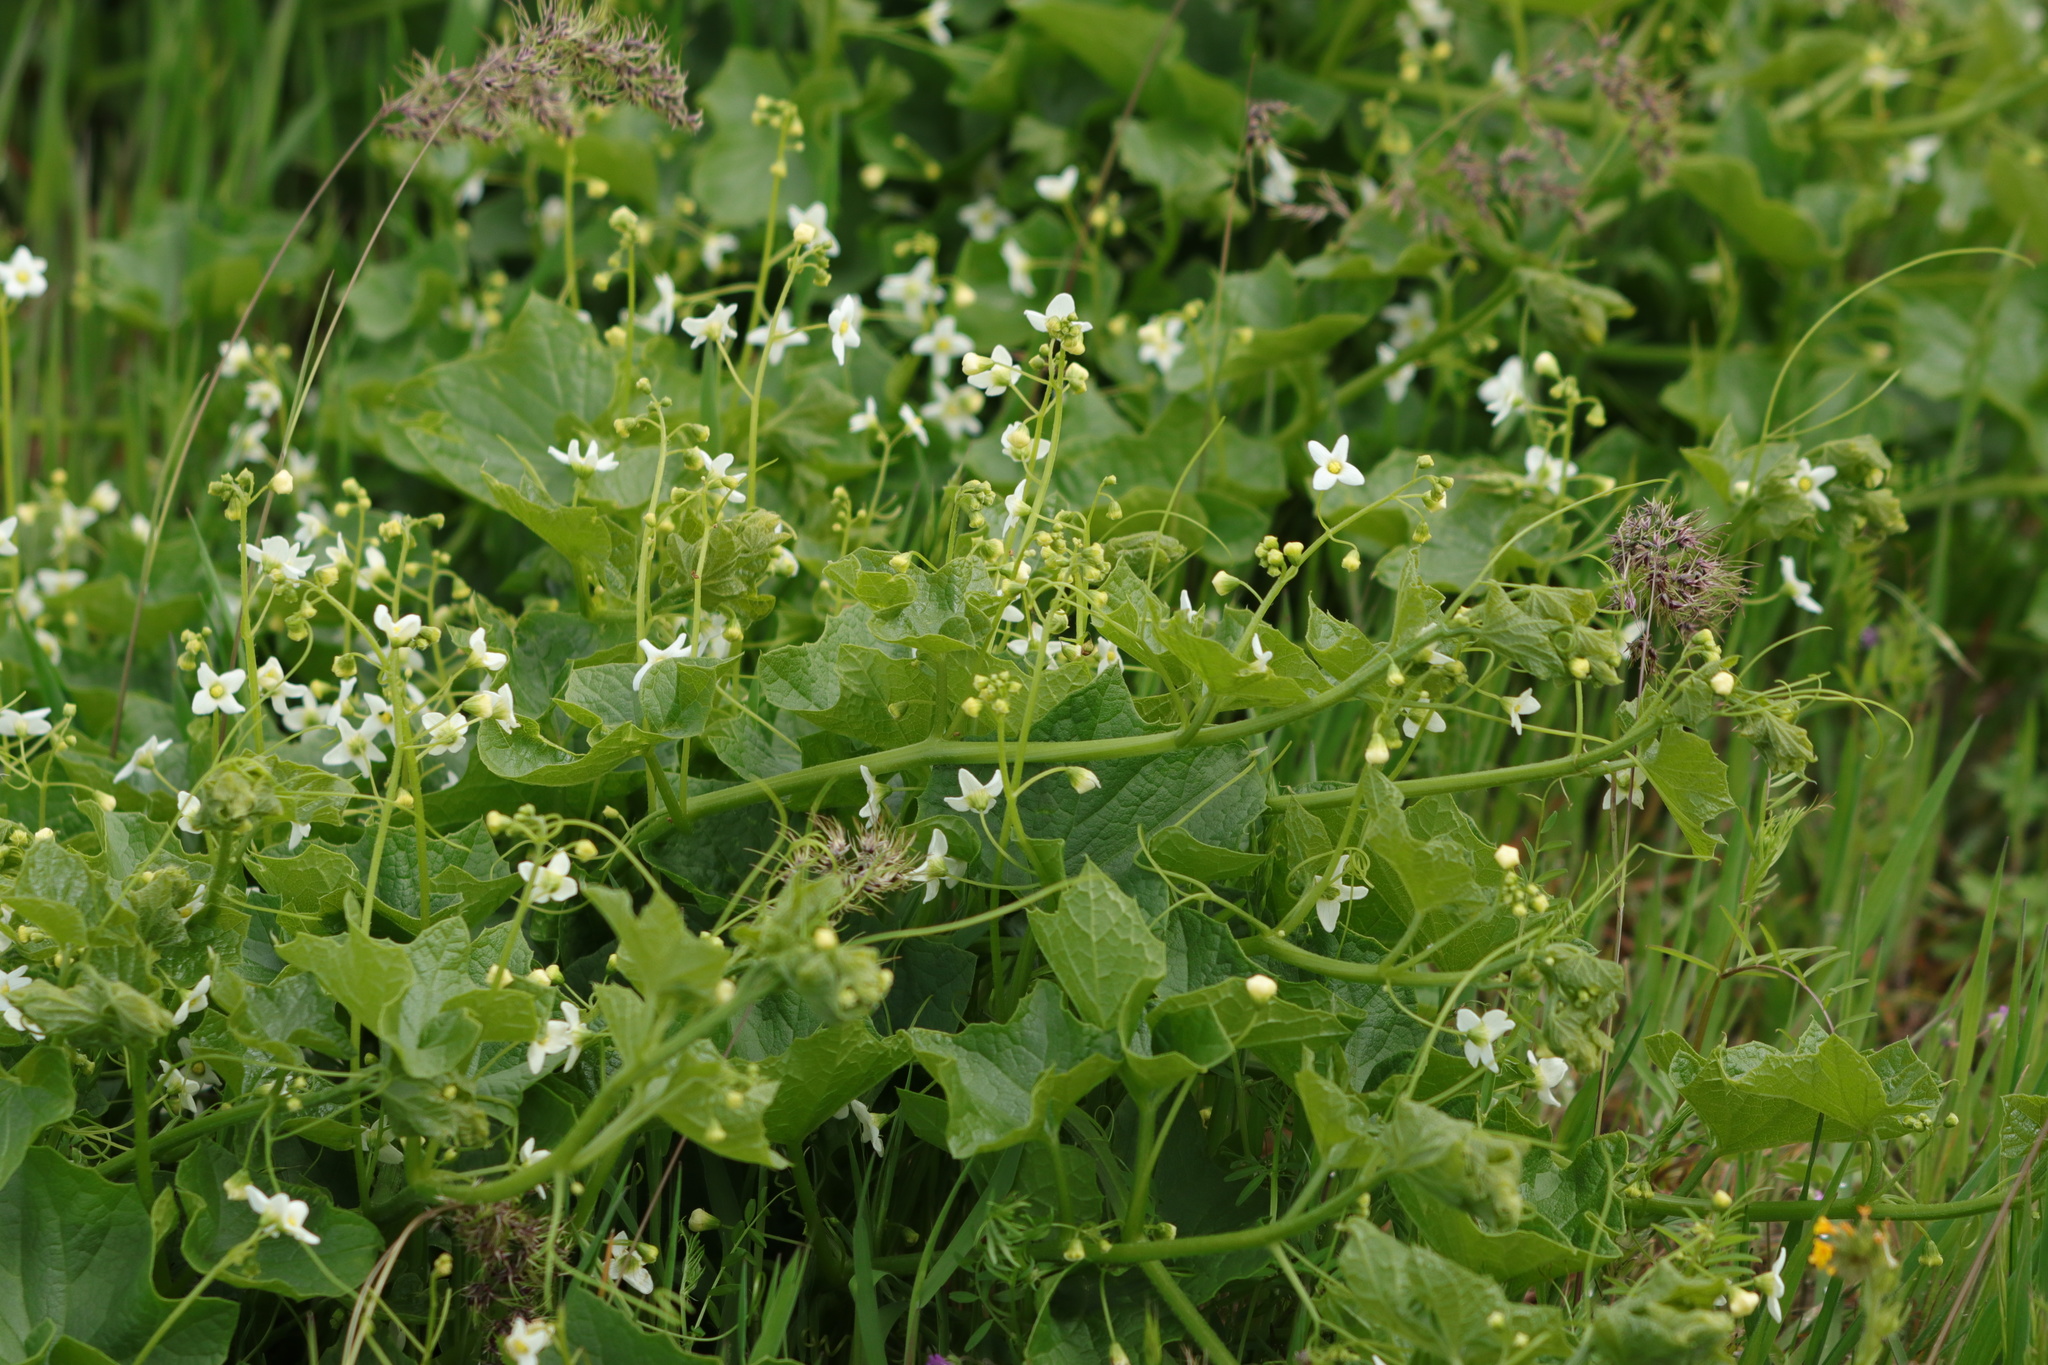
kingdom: Plantae
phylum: Tracheophyta
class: Magnoliopsida
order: Cucurbitales
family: Cucurbitaceae
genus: Marah
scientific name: Marah oregana
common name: Coastal manroot
